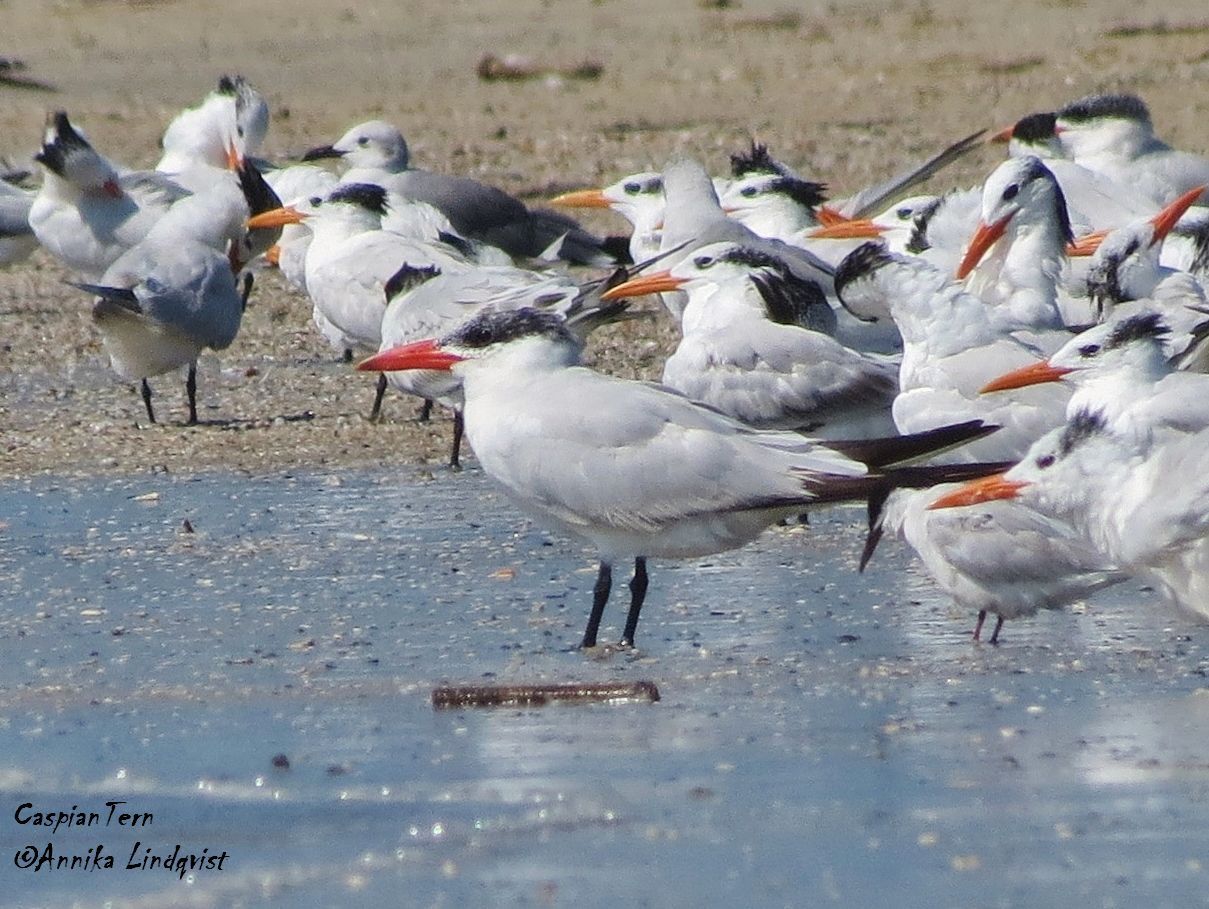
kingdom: Animalia
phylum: Chordata
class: Aves
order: Charadriiformes
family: Laridae
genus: Hydroprogne
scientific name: Hydroprogne caspia
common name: Caspian tern
